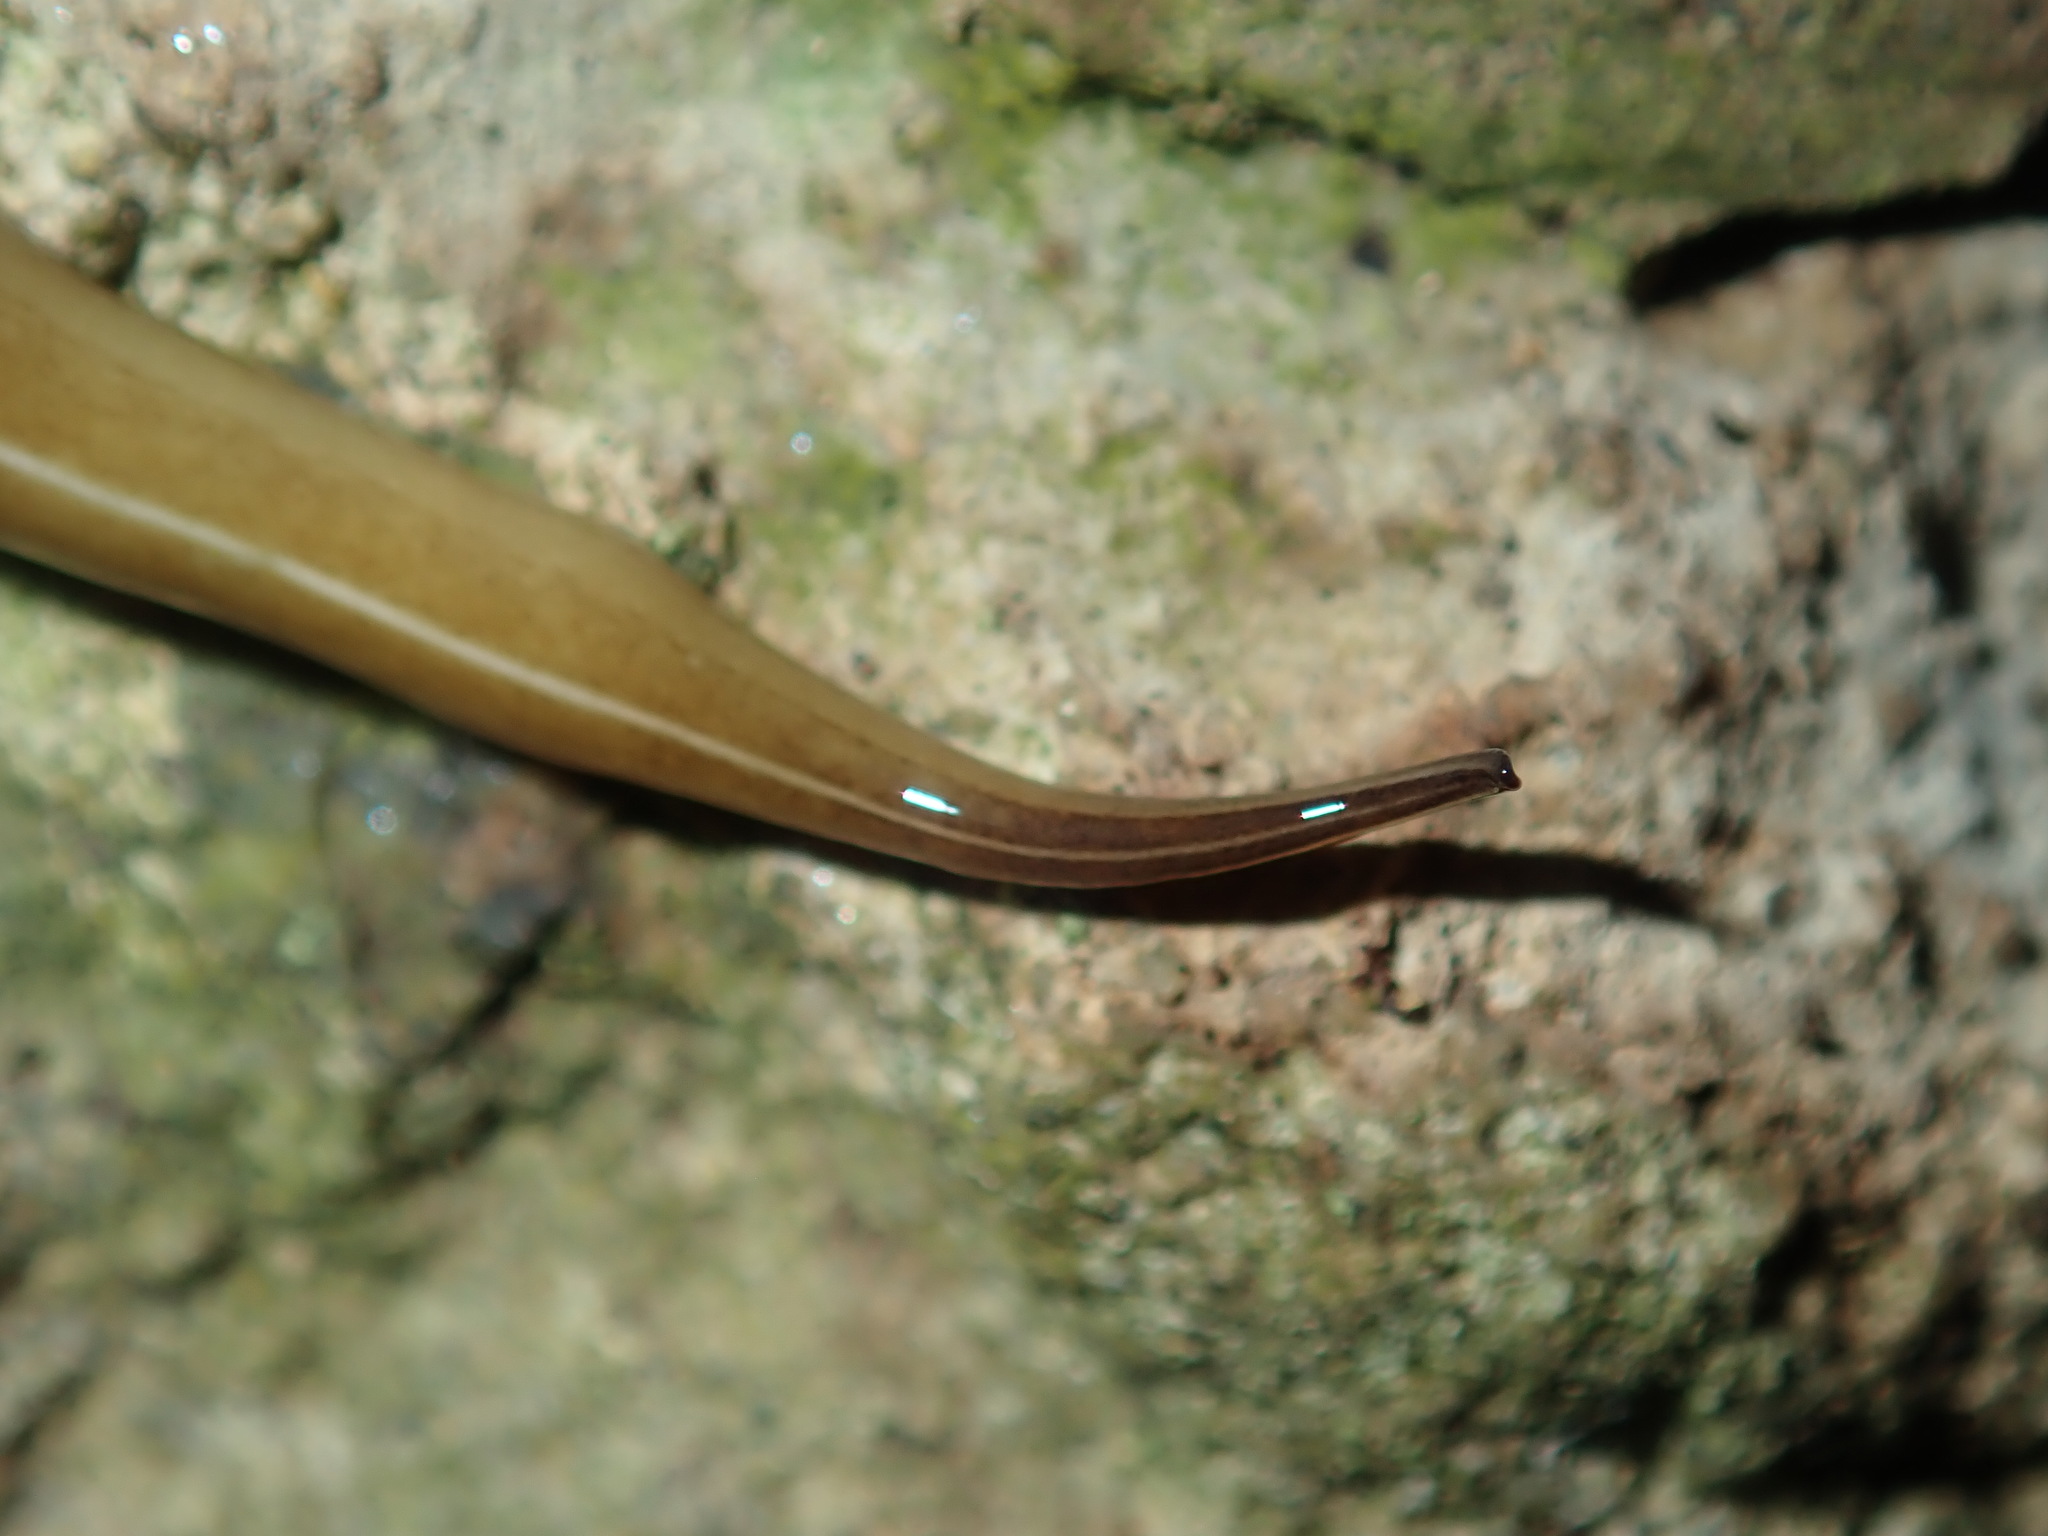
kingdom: Animalia
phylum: Platyhelminthes
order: Tricladida
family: Geoplanidae
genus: Australopacifica
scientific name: Australopacifica scaphoidea
